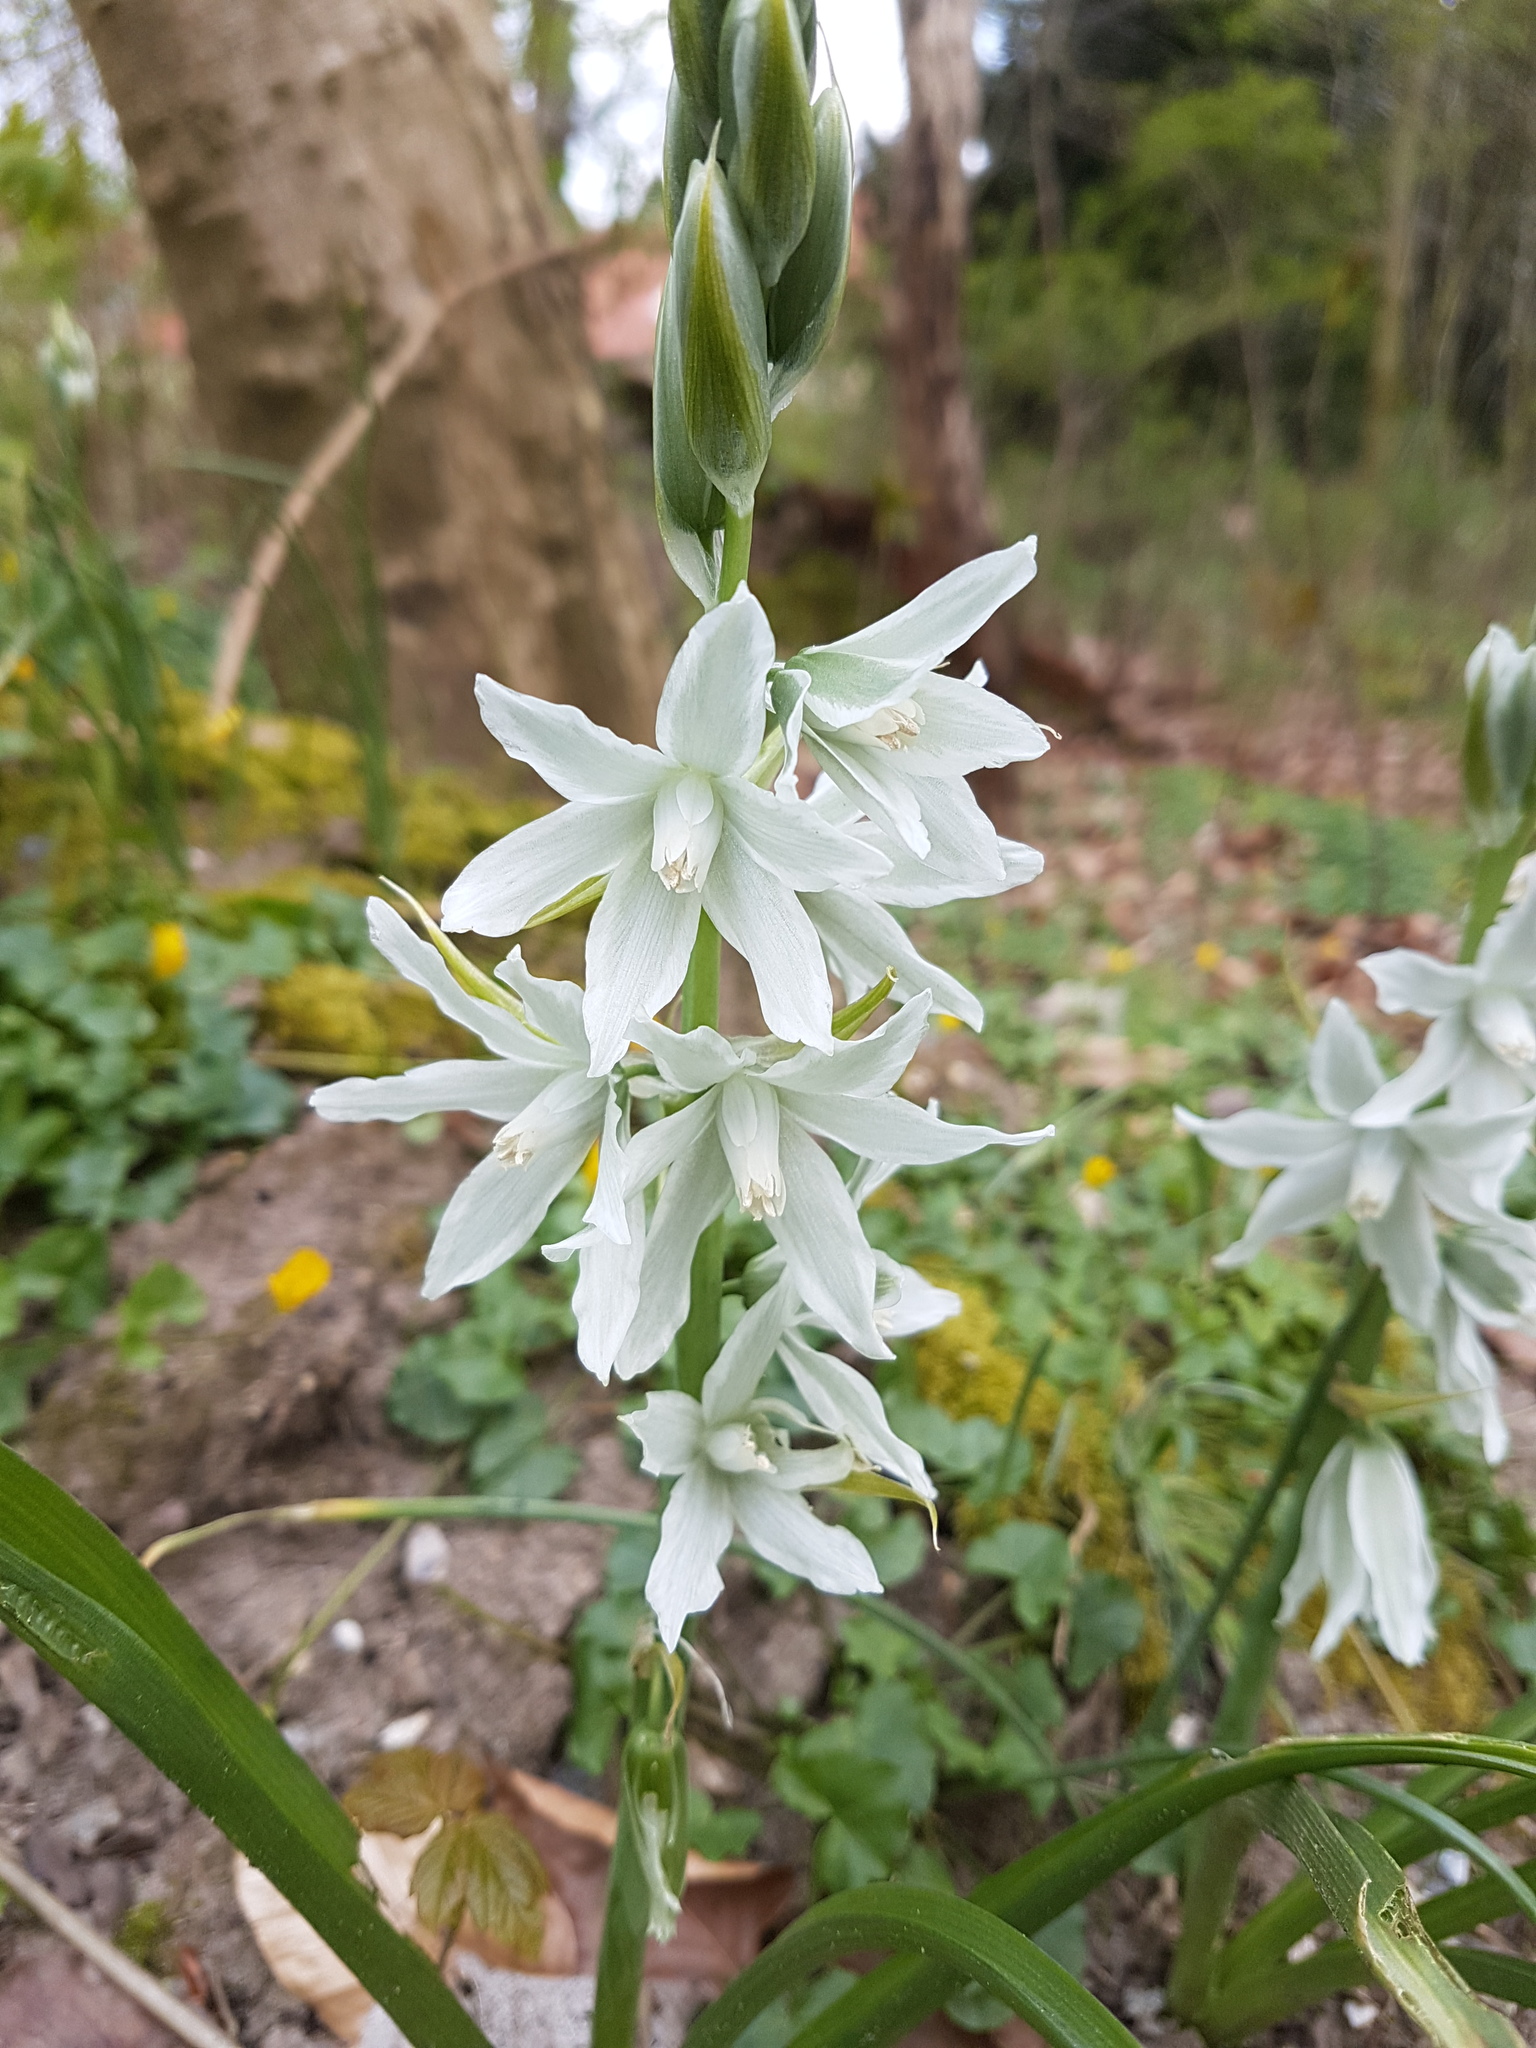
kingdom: Plantae
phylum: Tracheophyta
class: Liliopsida
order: Asparagales
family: Asparagaceae
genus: Ornithogalum
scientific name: Ornithogalum nutans
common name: Drooping star-of-bethlehem
